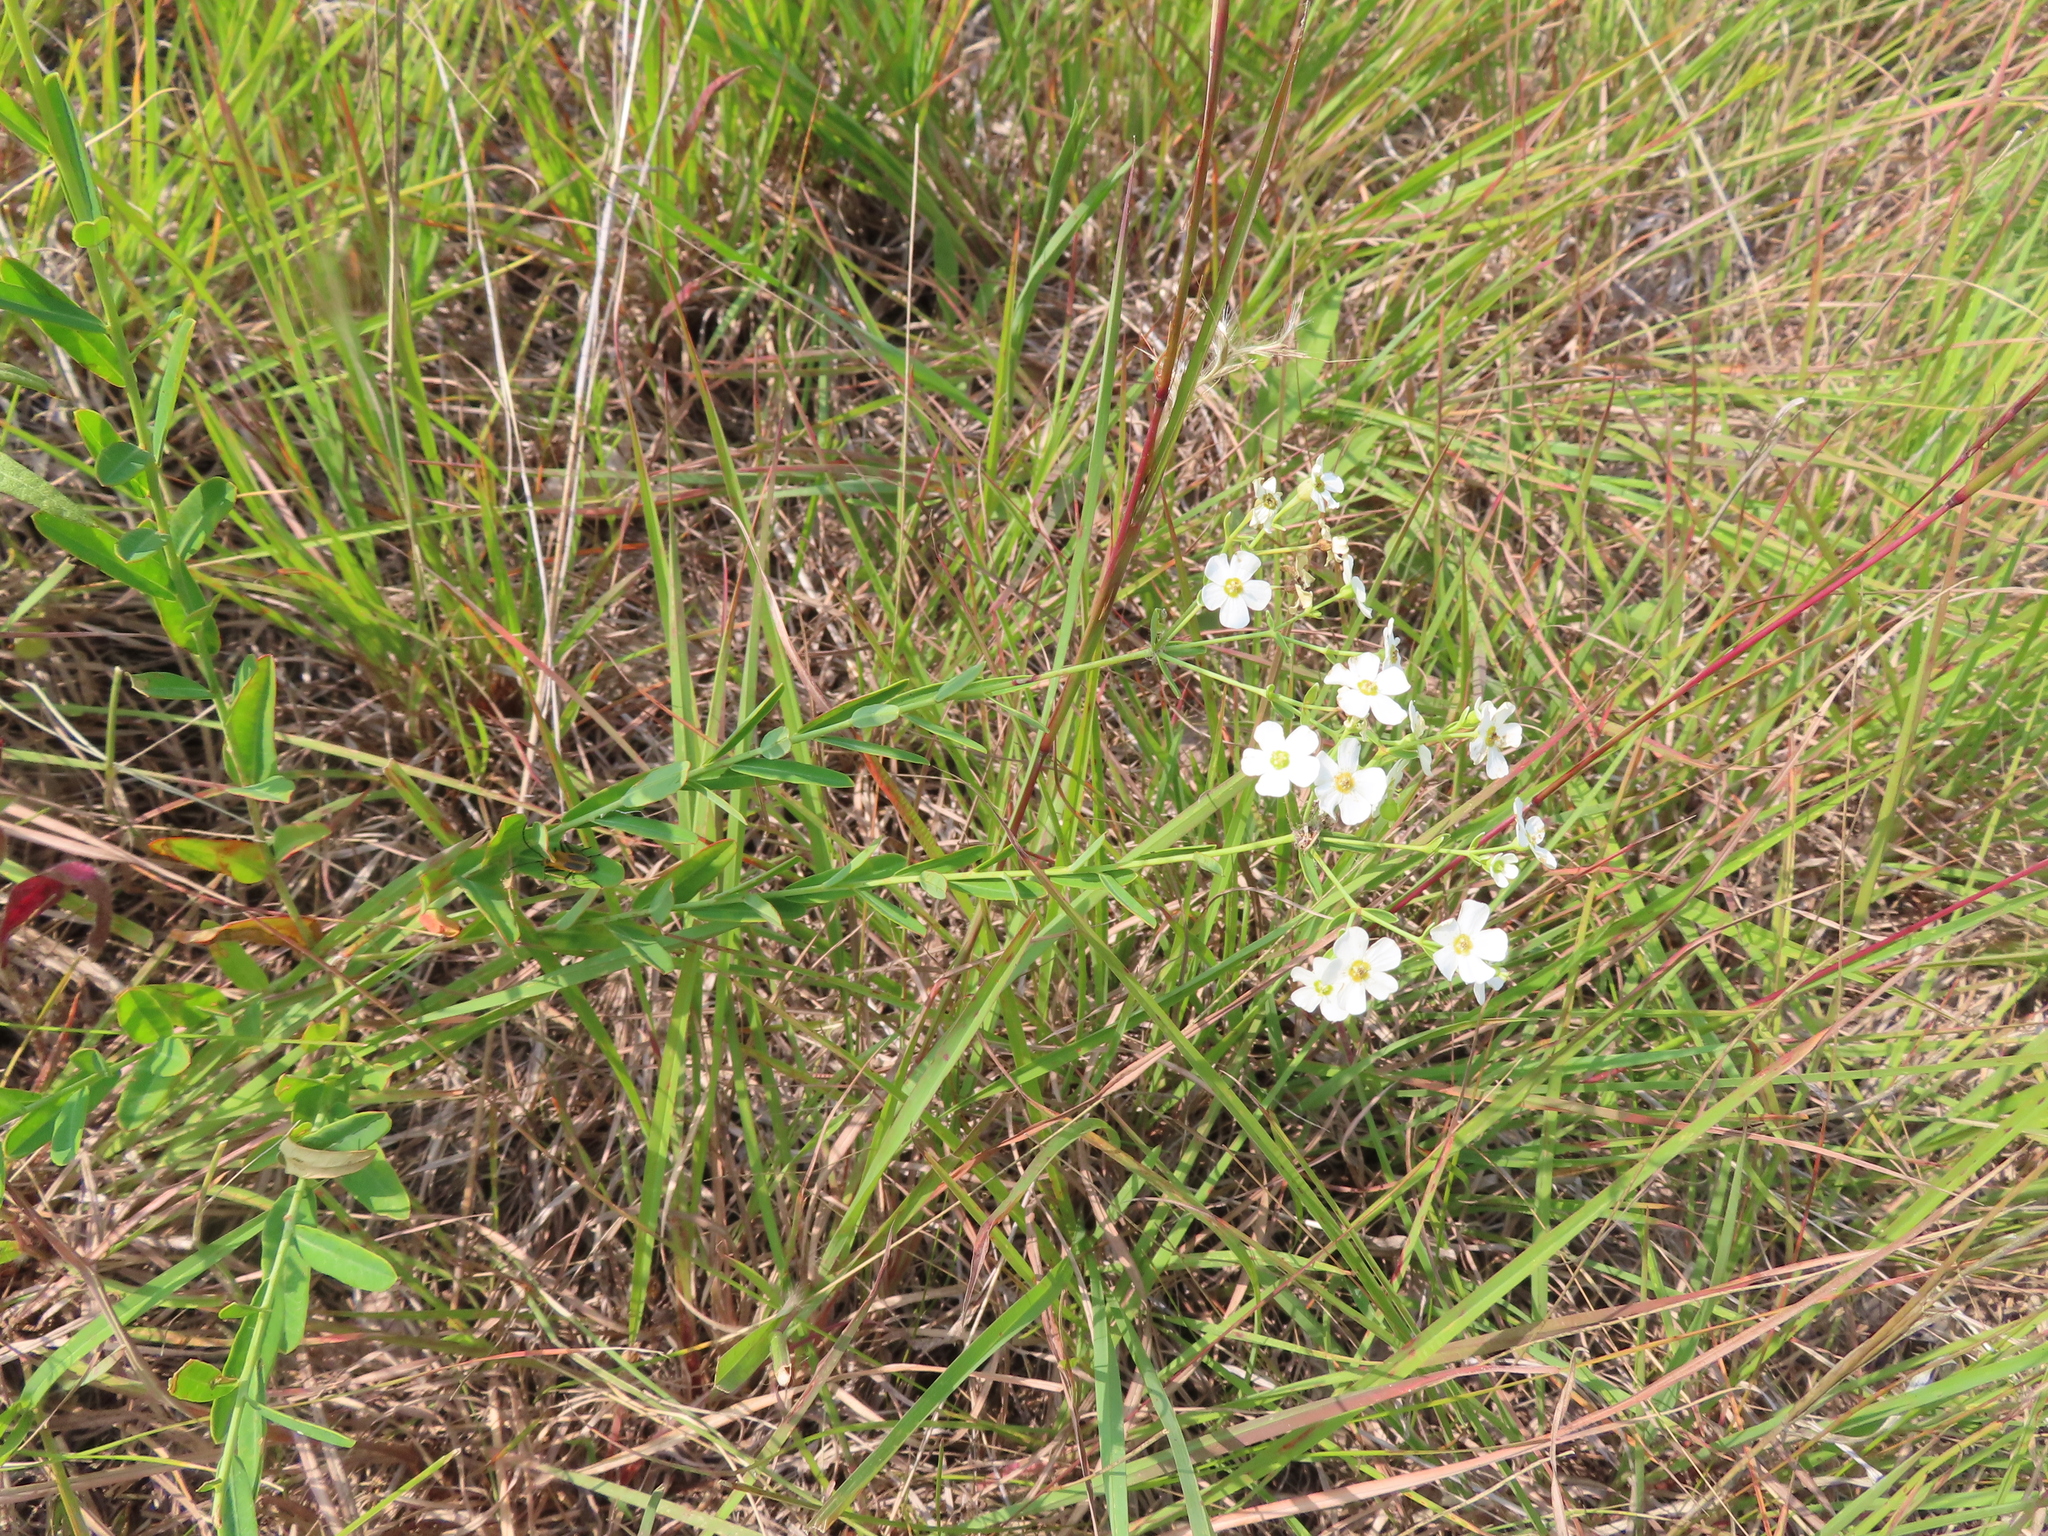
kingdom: Plantae
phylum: Tracheophyta
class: Magnoliopsida
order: Malpighiales
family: Euphorbiaceae
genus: Euphorbia
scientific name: Euphorbia corollata
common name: Flowering spurge
